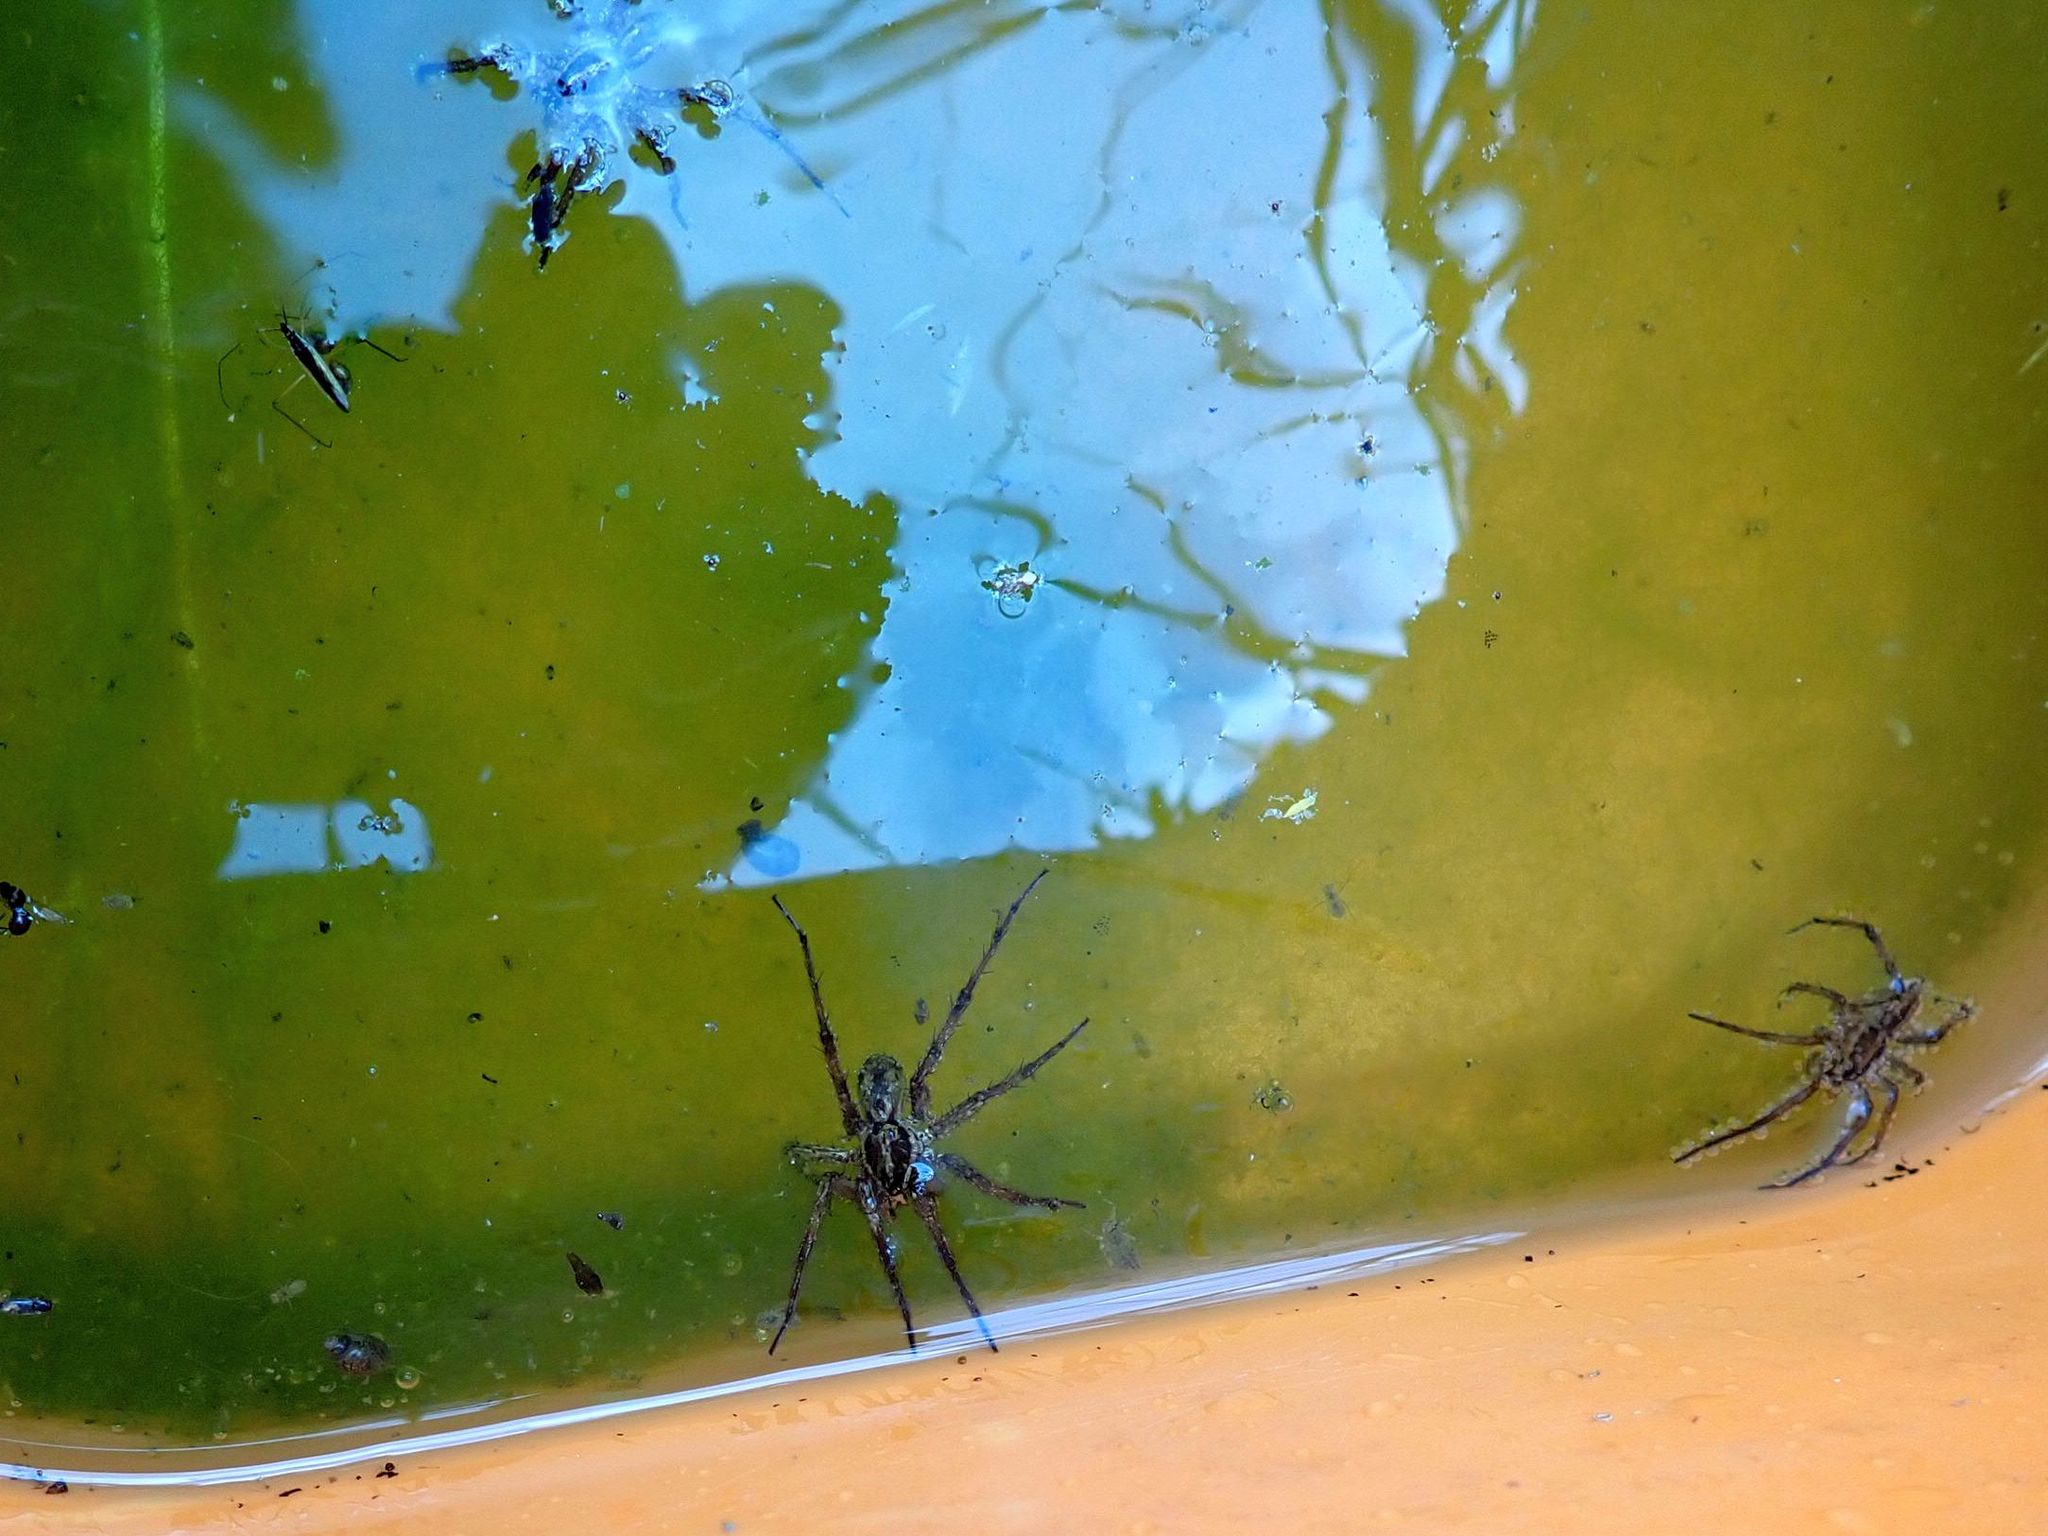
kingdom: Animalia
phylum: Arthropoda
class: Arachnida
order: Araneae
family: Lycosidae
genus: Hogna
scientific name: Hogna radiata
